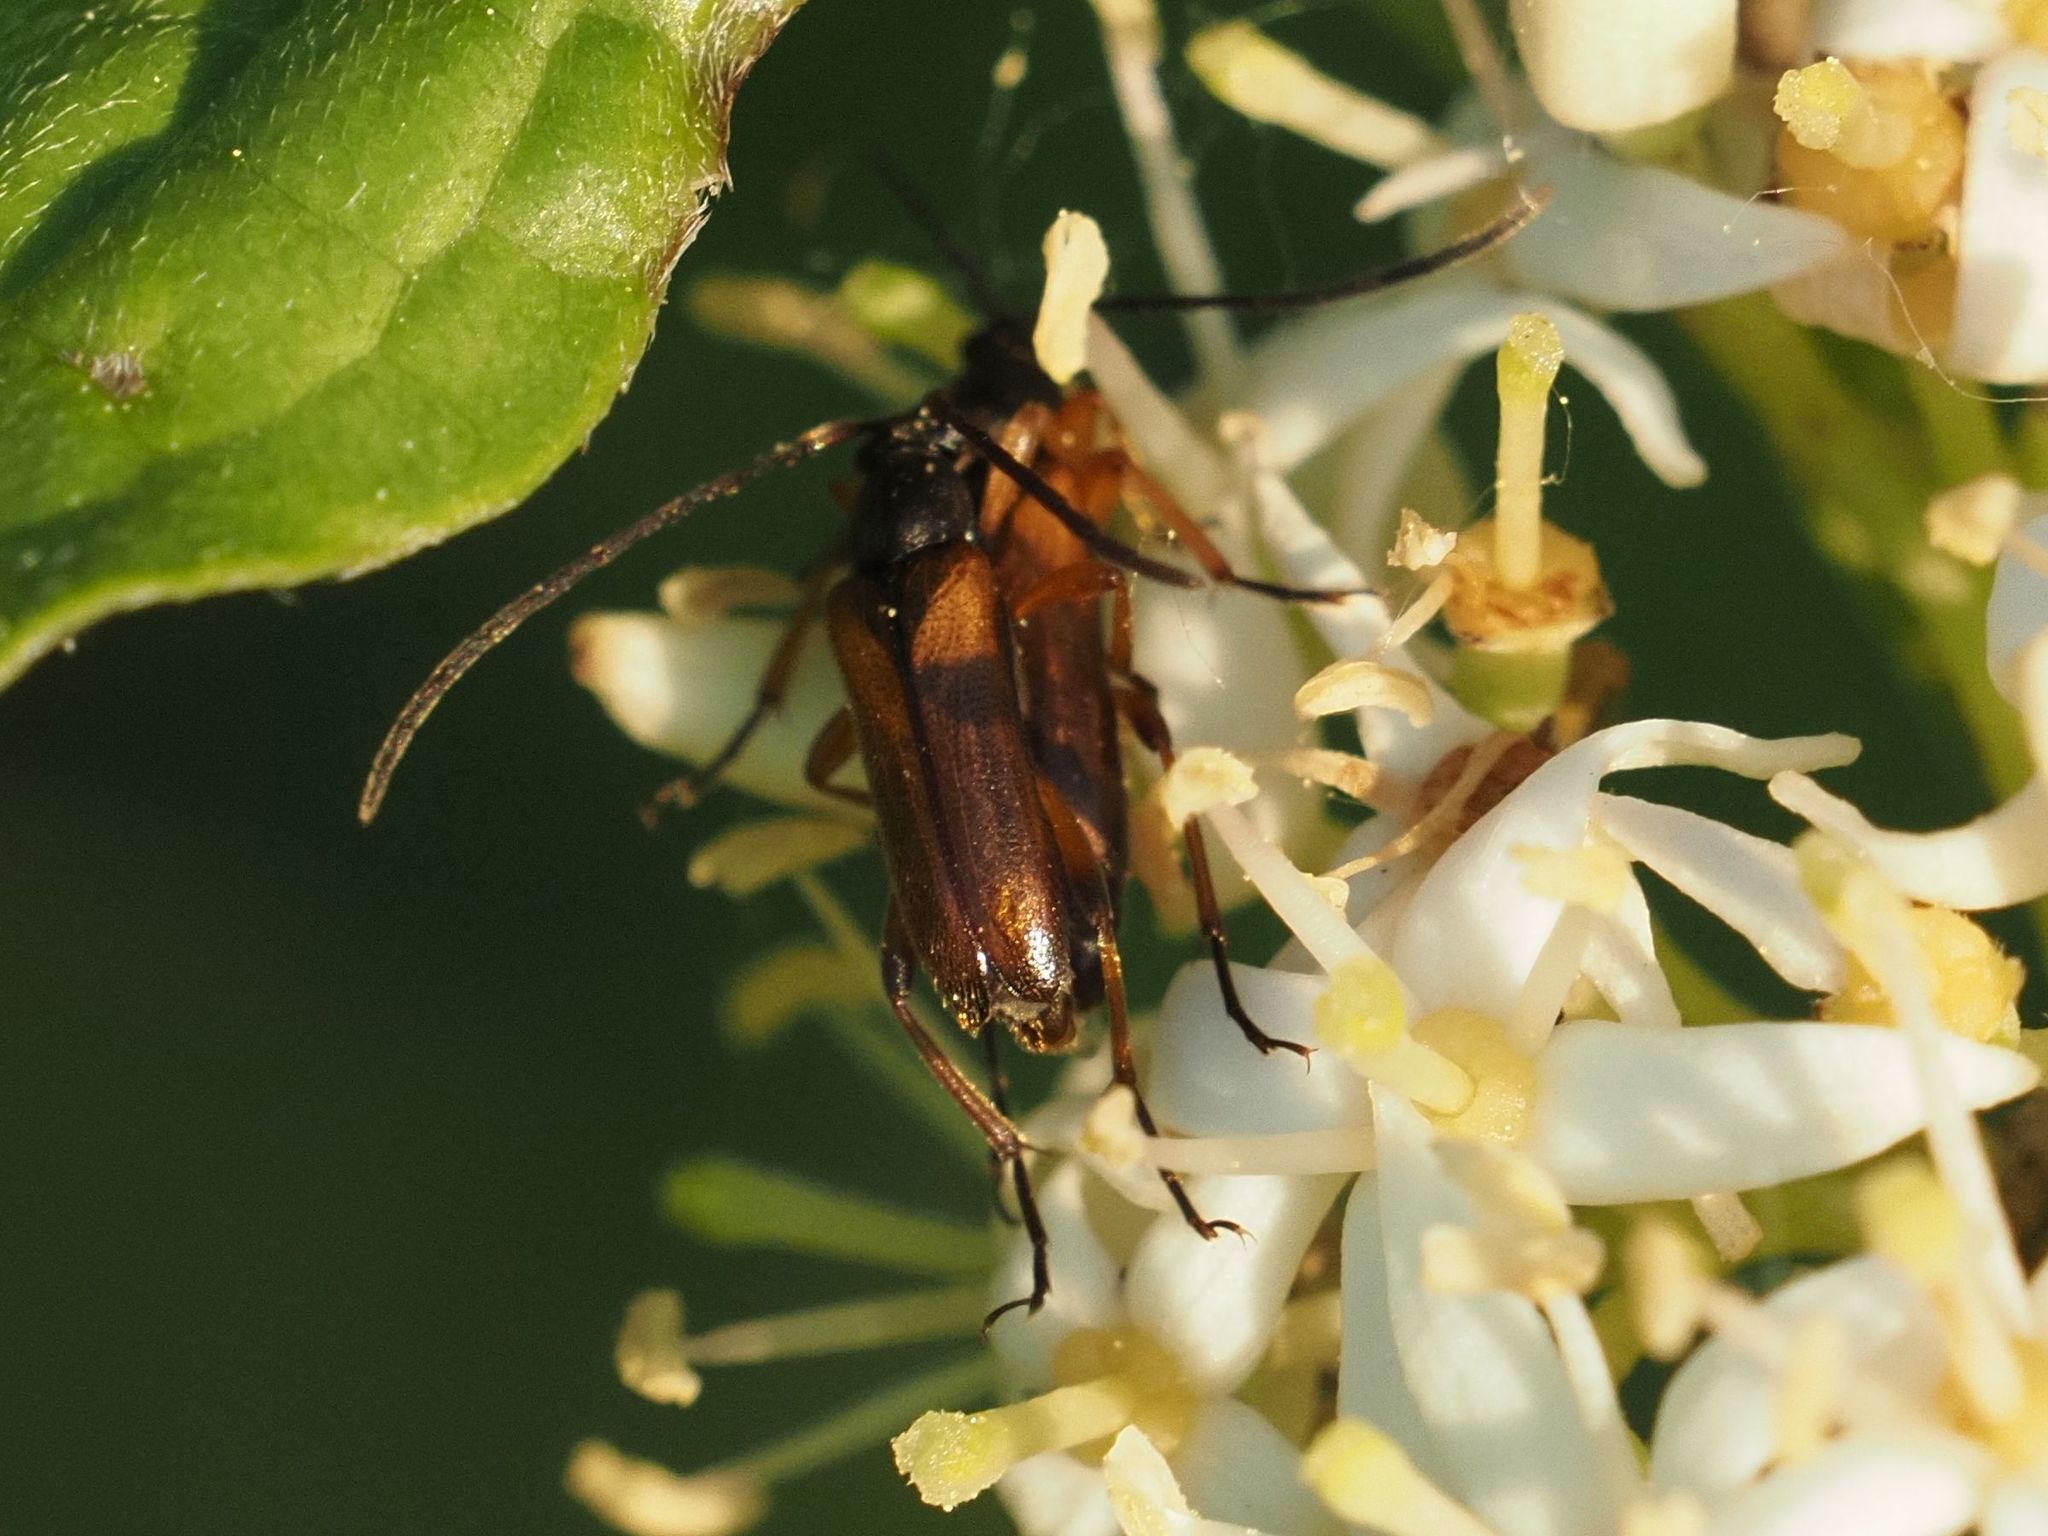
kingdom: Animalia
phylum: Arthropoda
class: Insecta
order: Coleoptera
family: Cerambycidae
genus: Alosterna
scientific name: Alosterna tabacicolor
